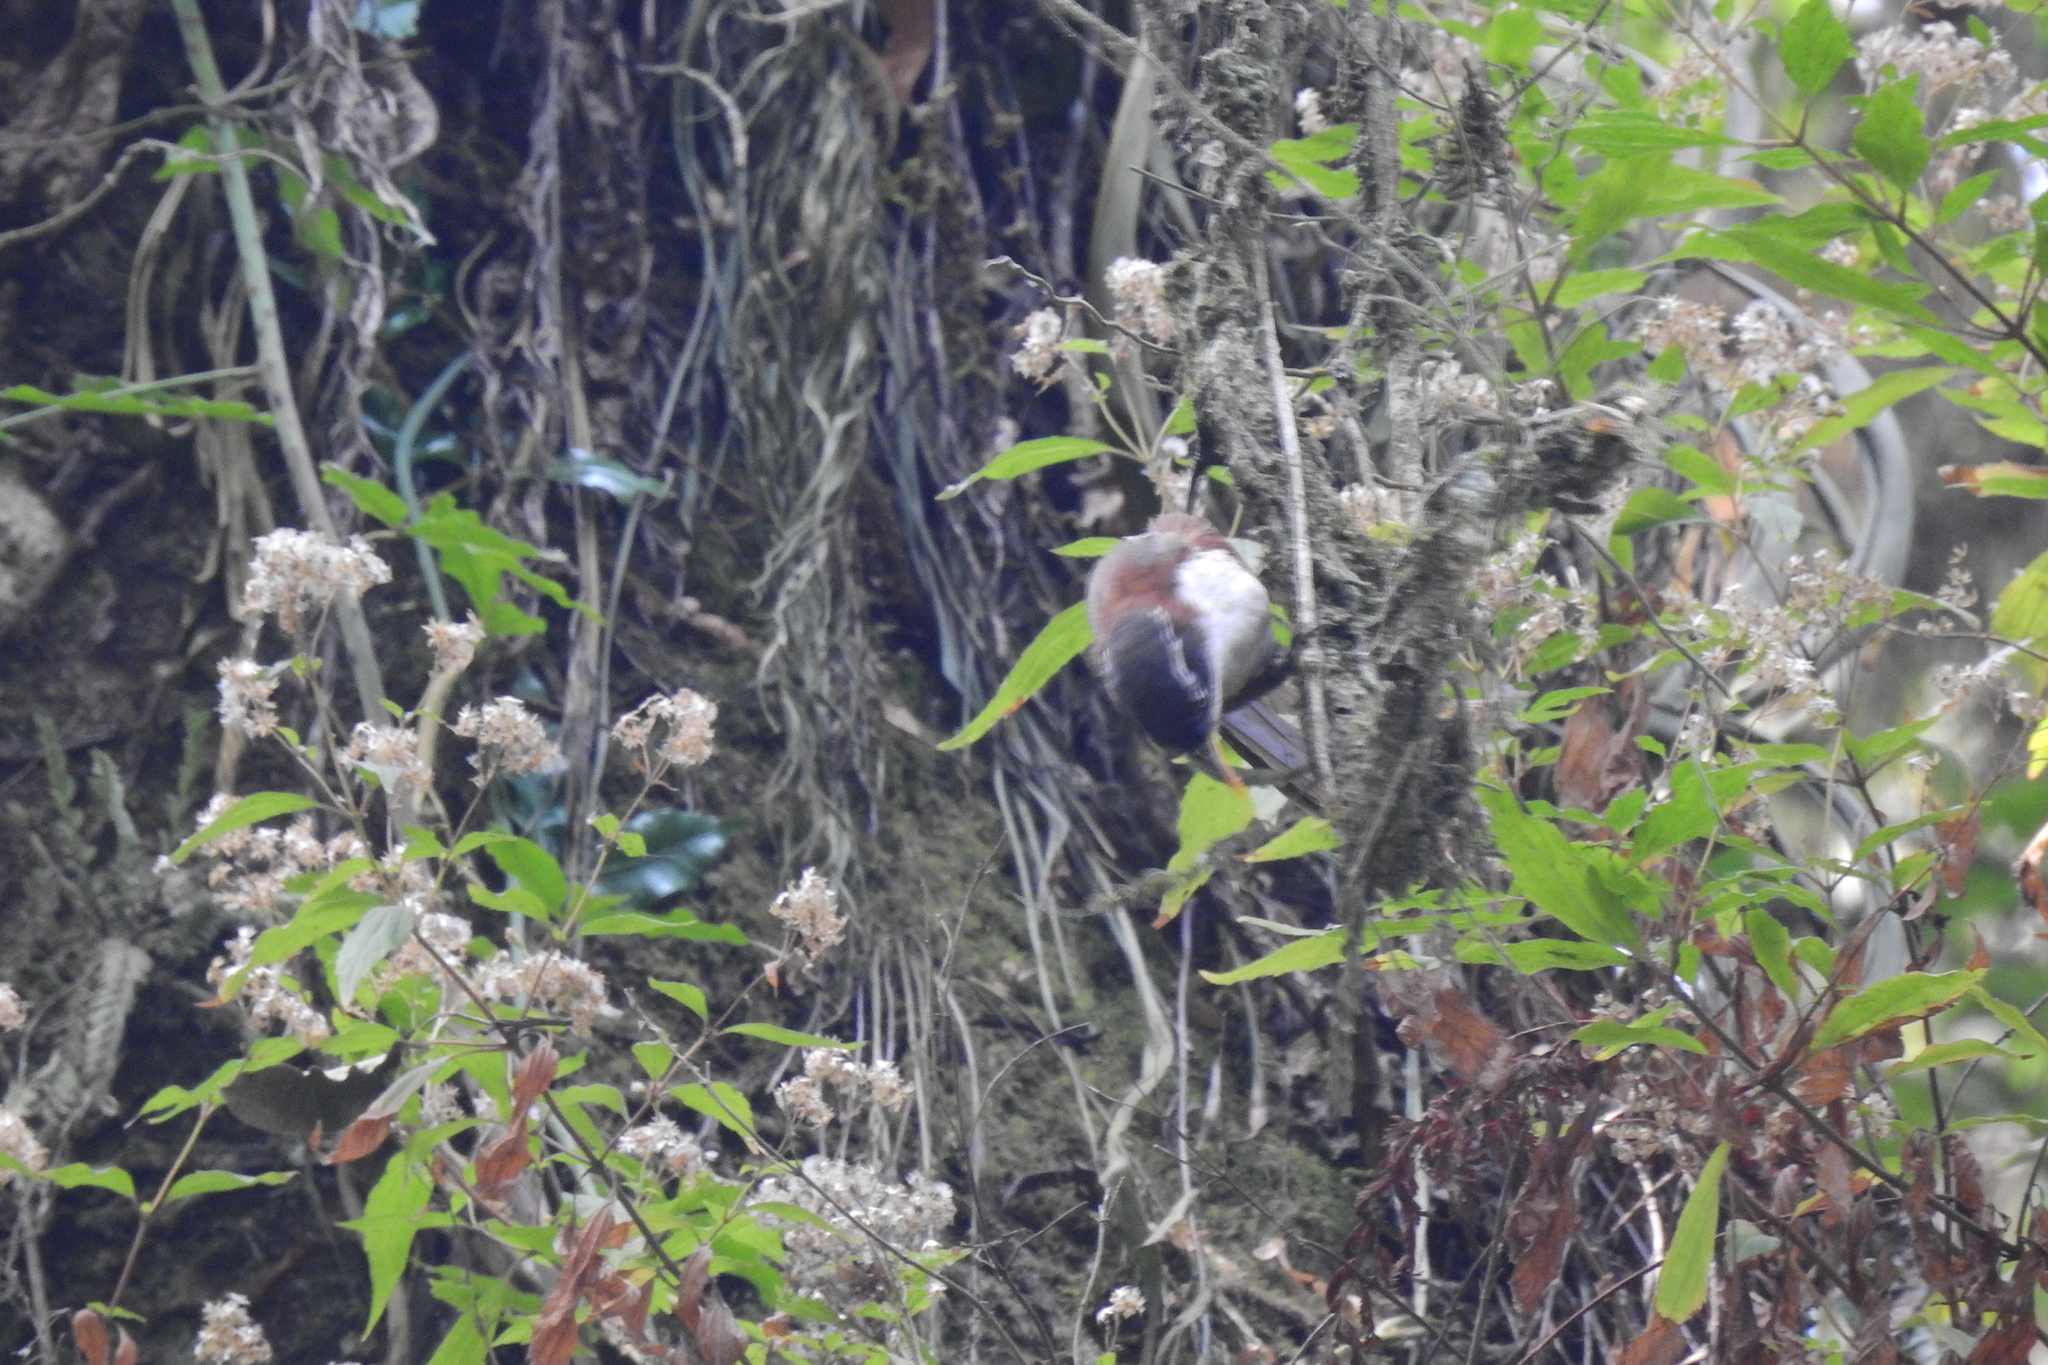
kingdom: Animalia
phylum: Chordata
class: Aves
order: Passeriformes
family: Timaliidae
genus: Pomatorhinus
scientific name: Pomatorhinus montanus
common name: Chestnut-backed scimitar babbler
